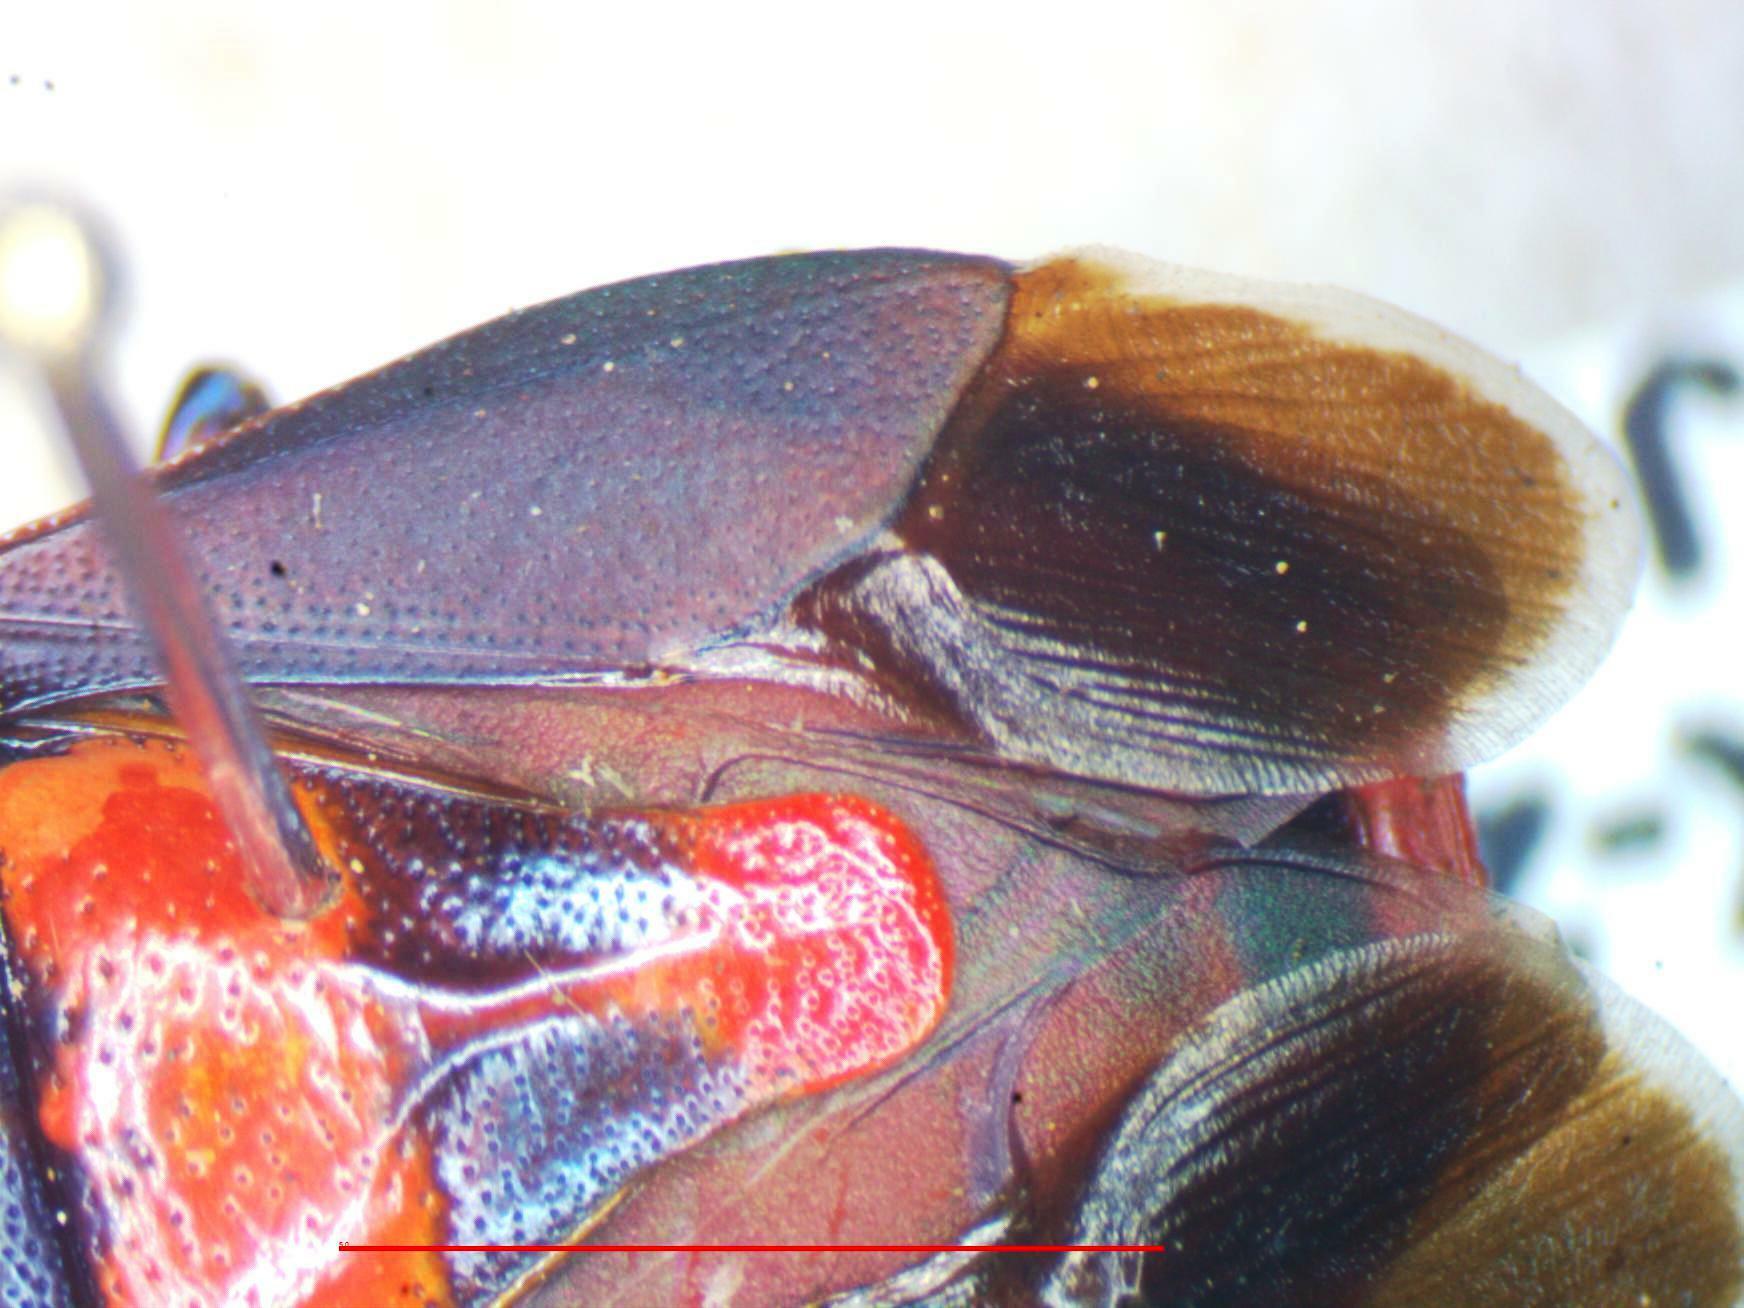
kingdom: Animalia
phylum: Arthropoda
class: Insecta
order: Hemiptera
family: Pentatomidae
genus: Euthyrhynchus
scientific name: Euthyrhynchus floridanus
